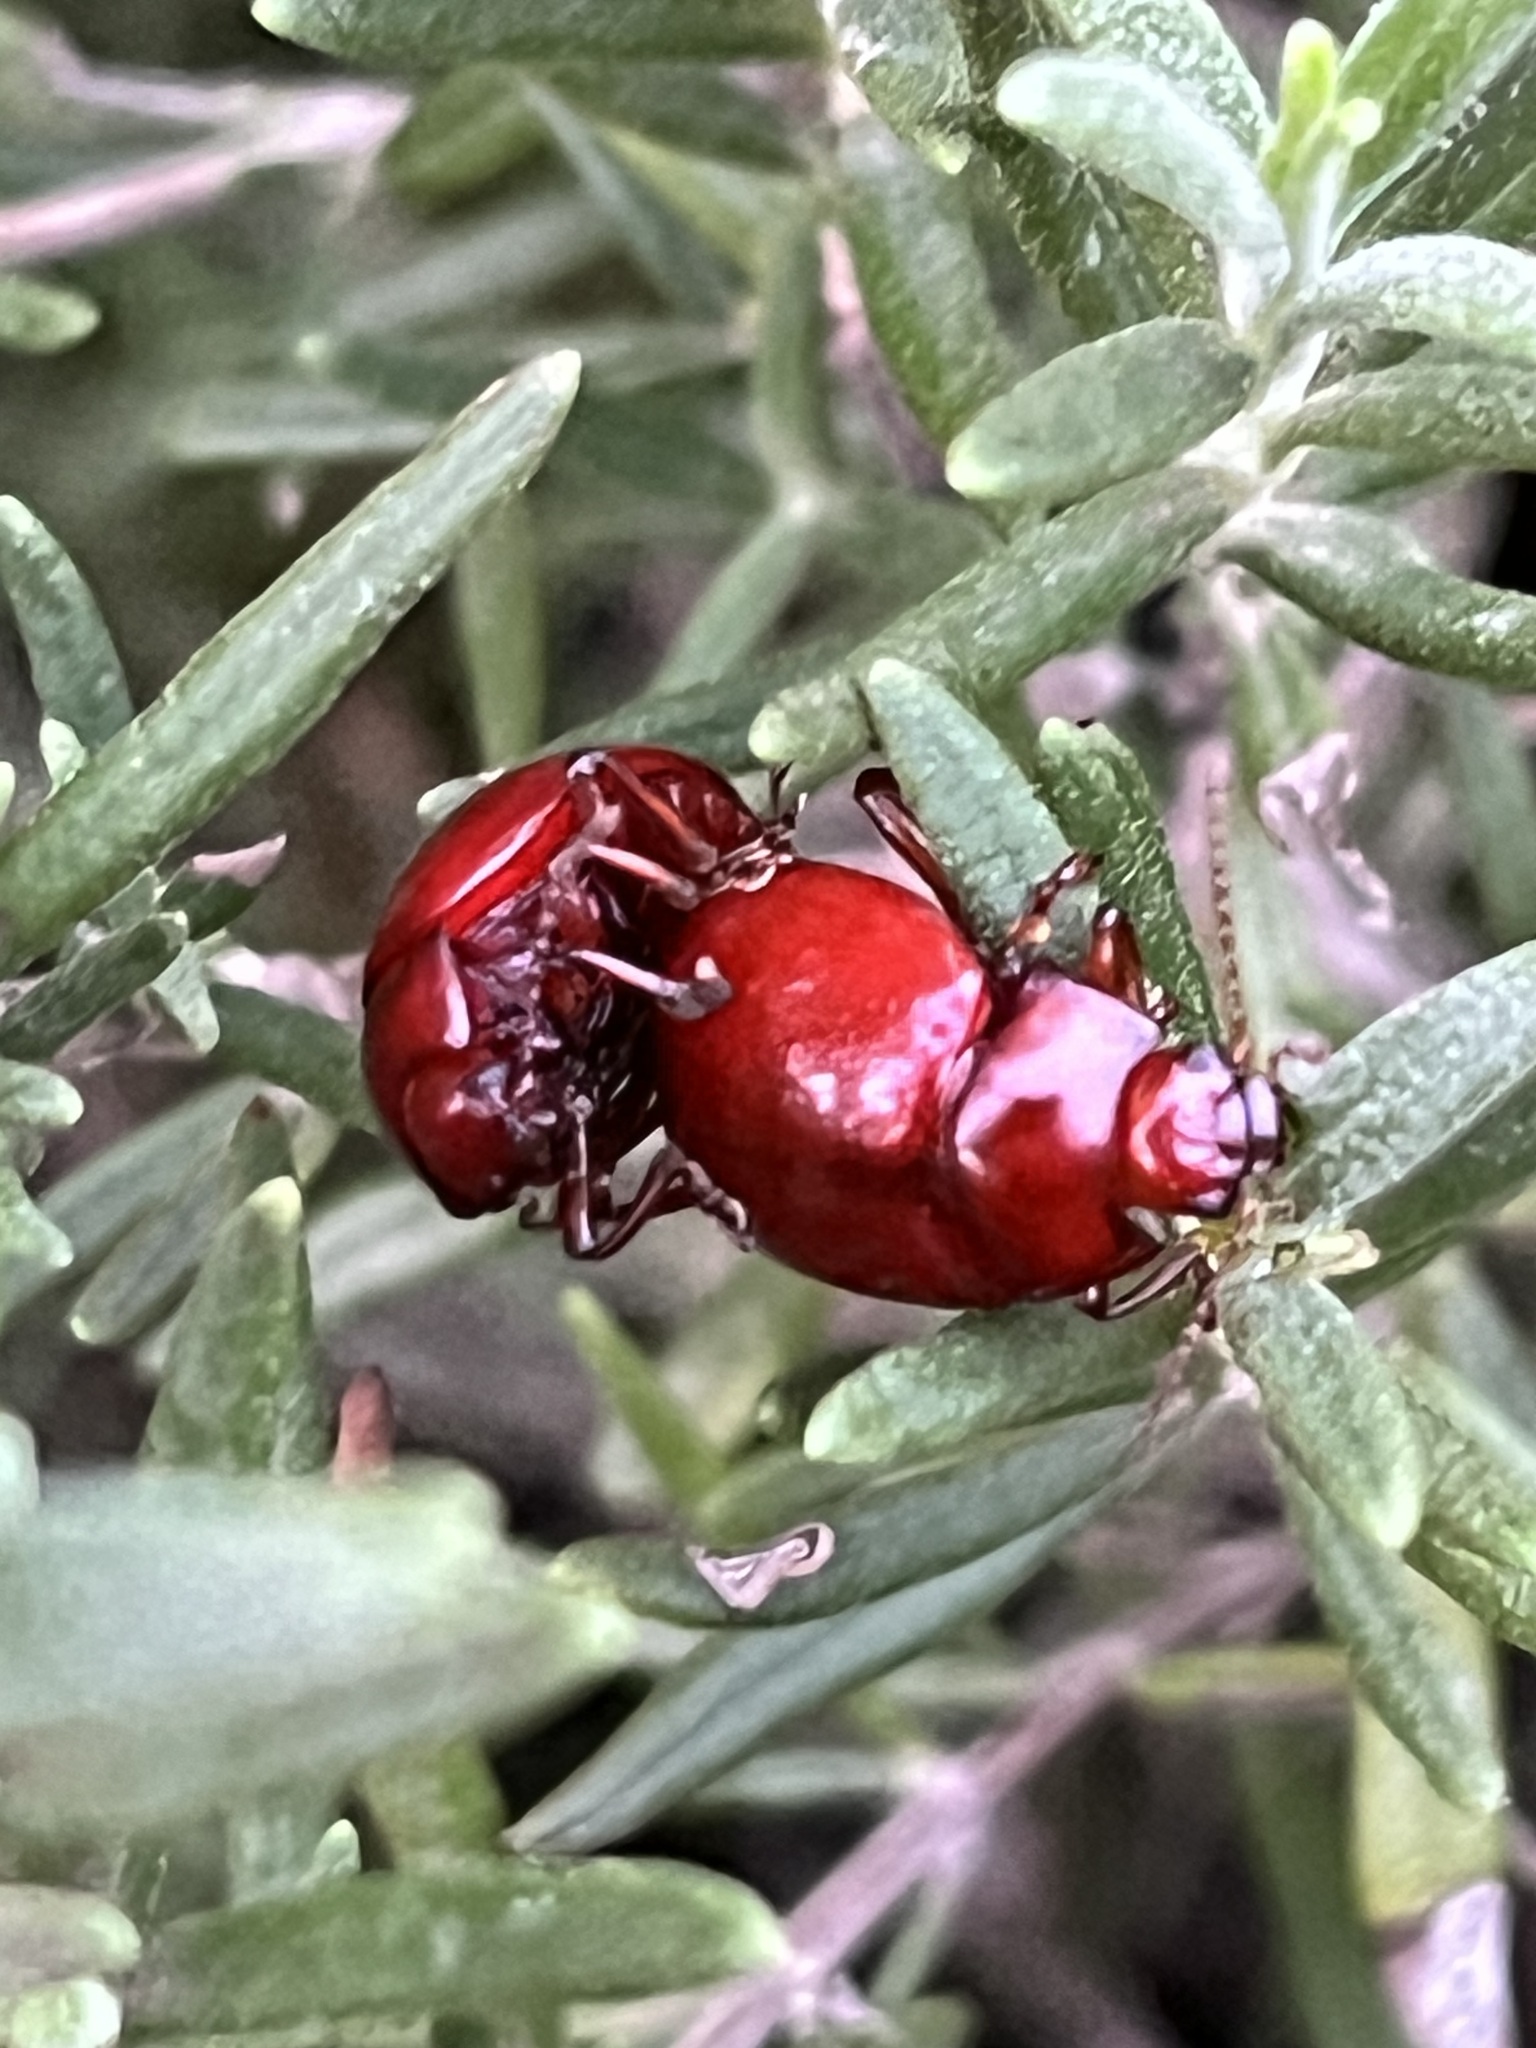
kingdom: Animalia
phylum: Arthropoda
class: Insecta
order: Coleoptera
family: Chrysomelidae
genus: Chrysolina
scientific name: Chrysolina
